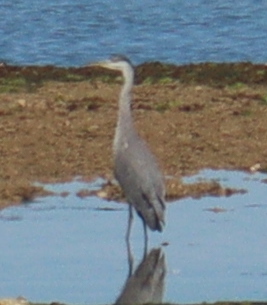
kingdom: Animalia
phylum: Chordata
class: Aves
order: Pelecaniformes
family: Ardeidae
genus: Ardea
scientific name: Ardea cinerea
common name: Grey heron
